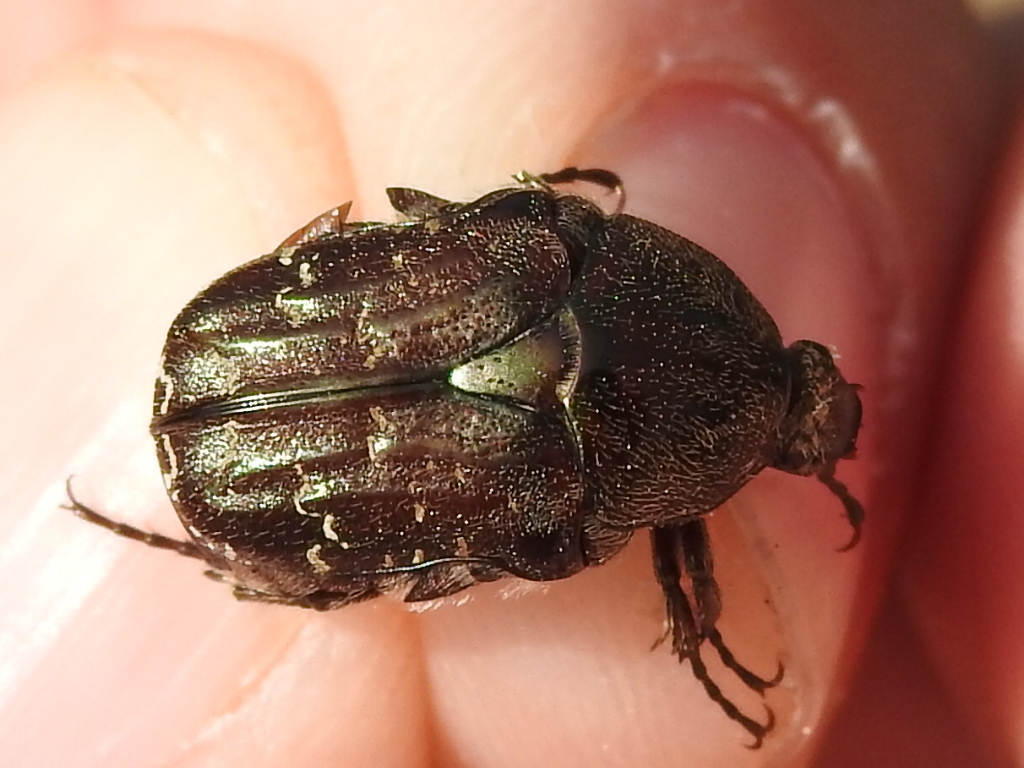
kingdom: Animalia
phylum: Arthropoda
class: Insecta
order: Coleoptera
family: Scarabaeidae
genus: Euphoria
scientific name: Euphoria sepulcralis
